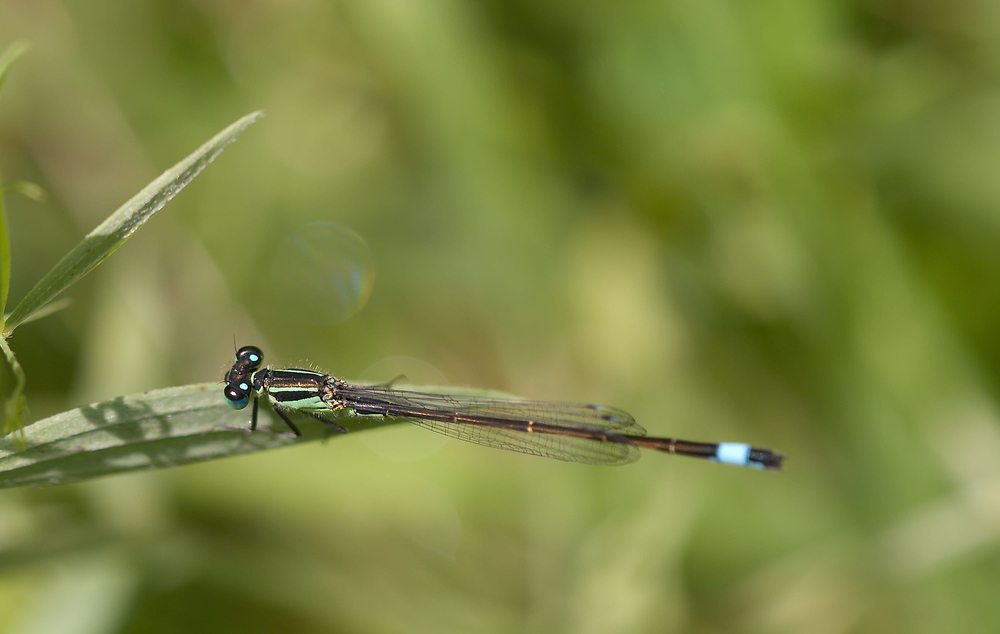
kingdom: Animalia
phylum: Arthropoda
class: Insecta
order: Odonata
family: Coenagrionidae
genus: Ischnura
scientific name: Ischnura elegans
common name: Blue-tailed damselfly
